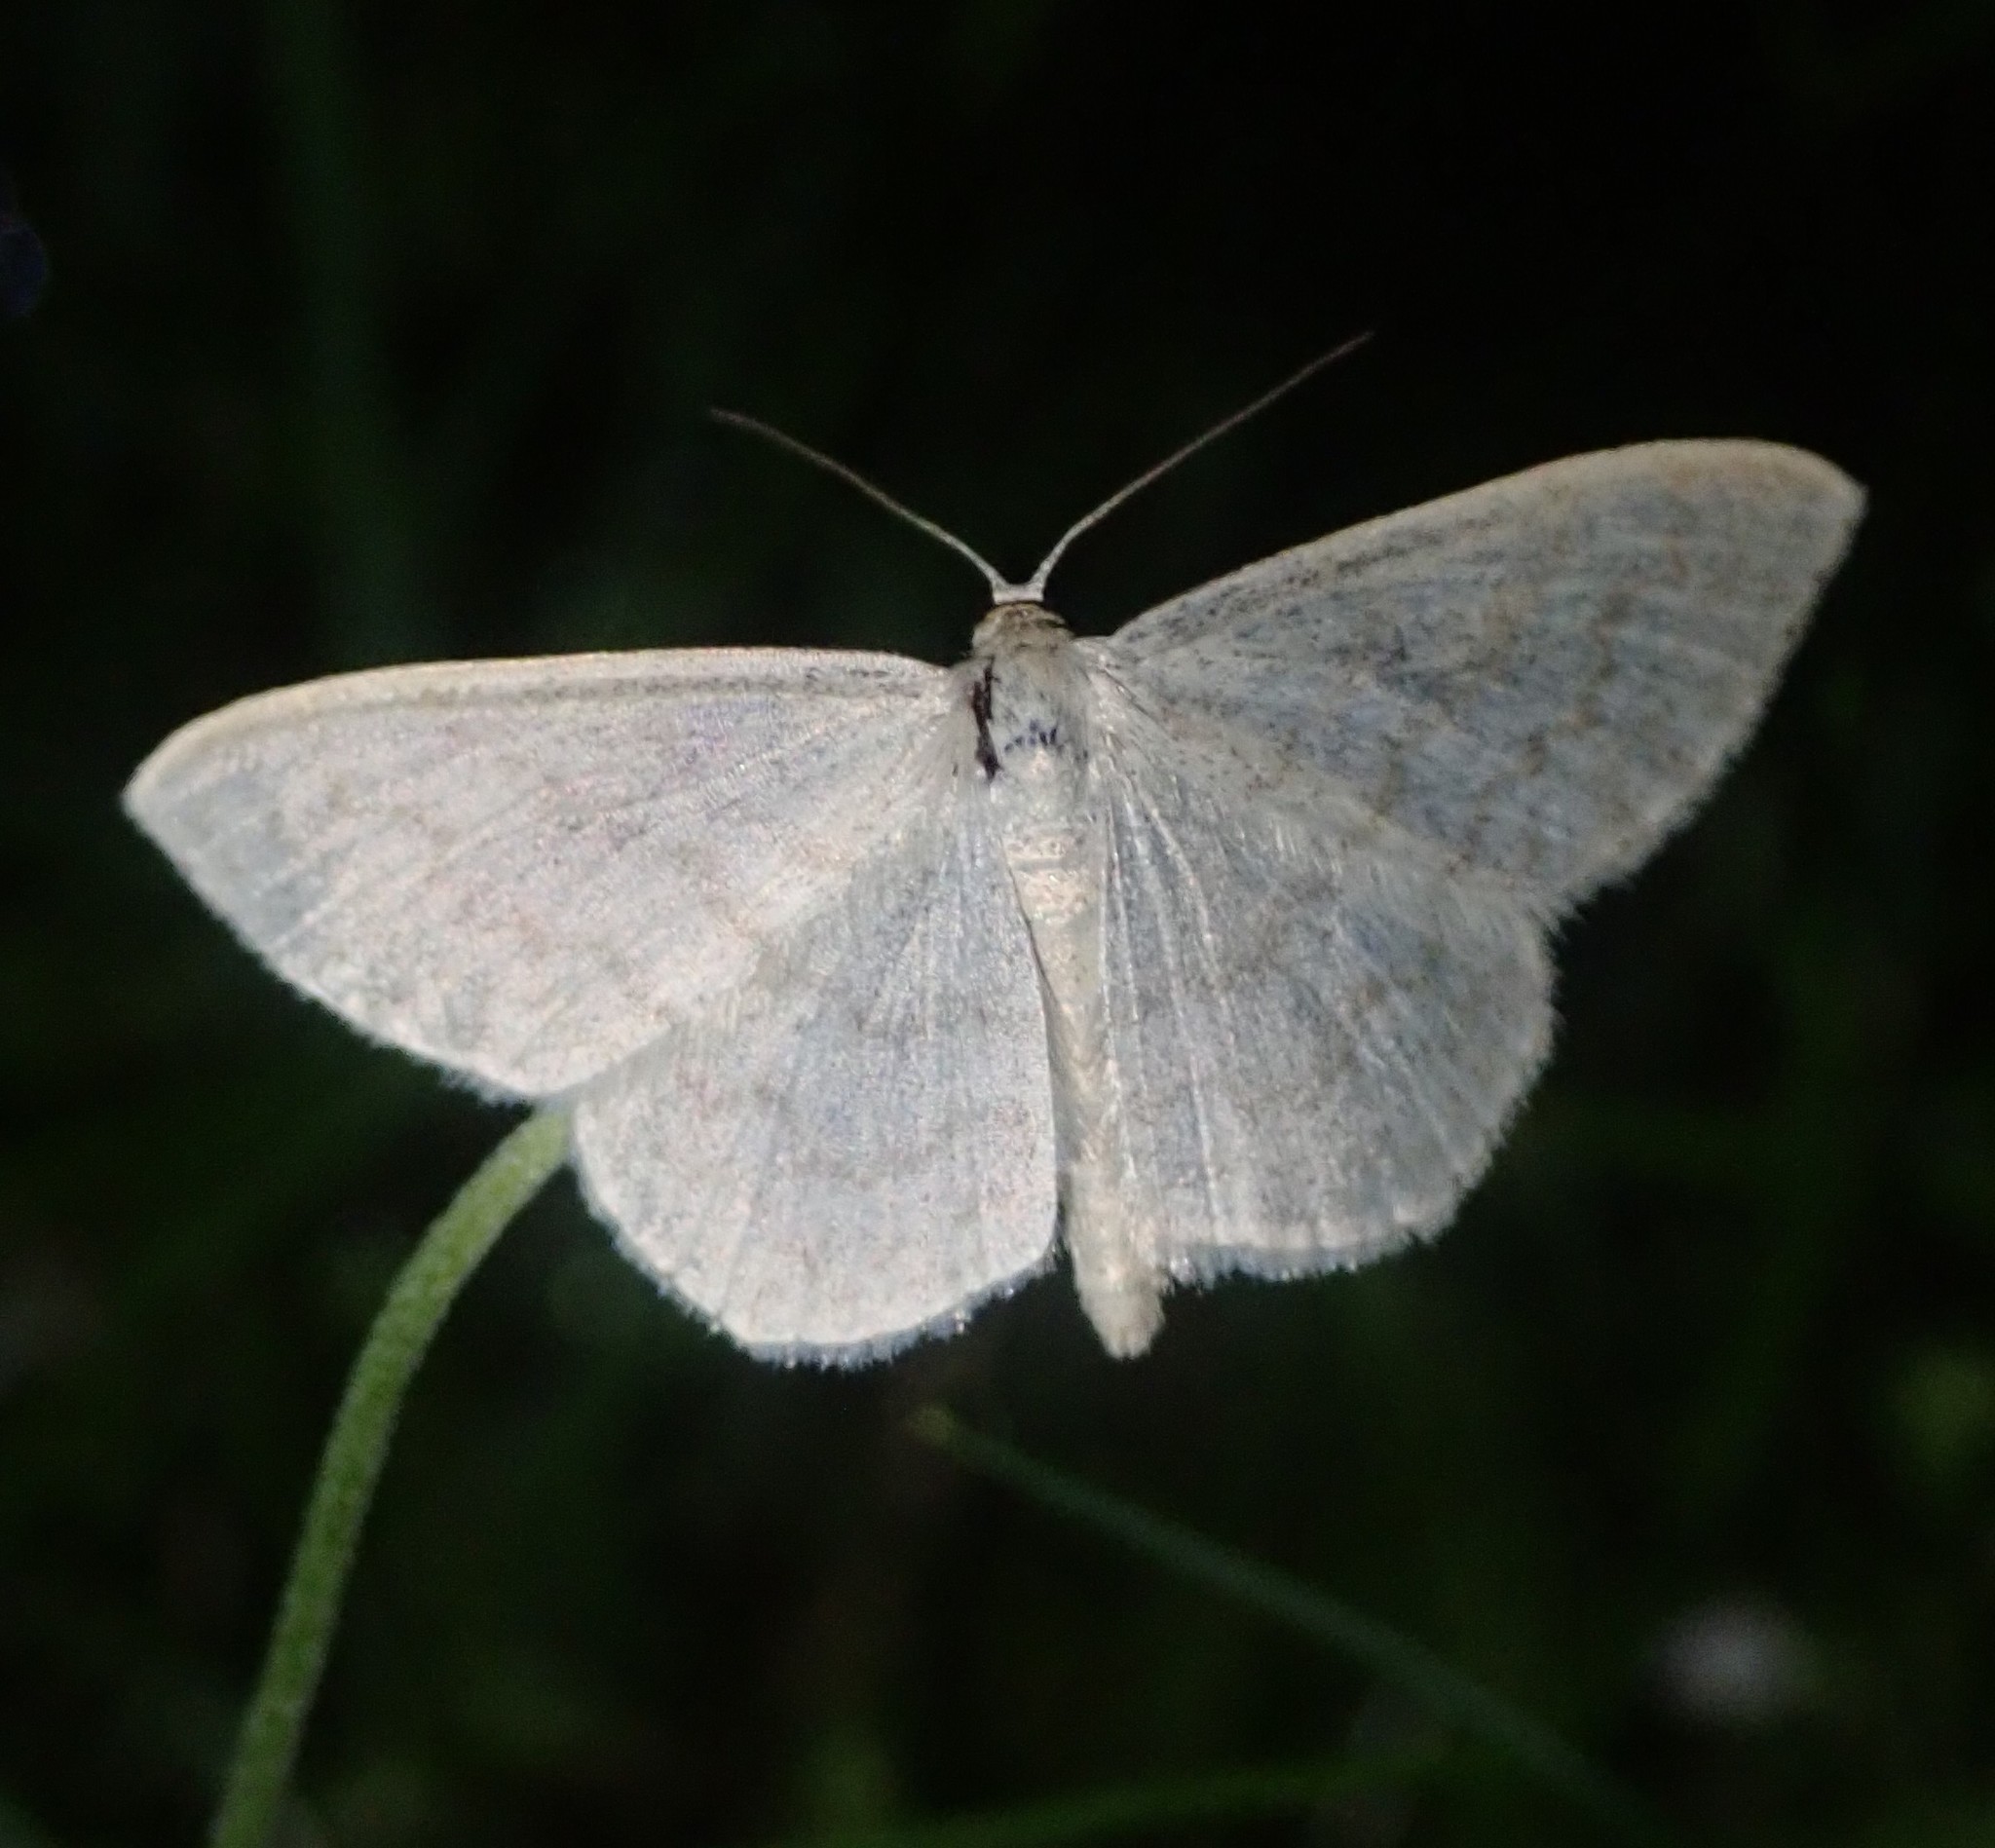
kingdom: Animalia
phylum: Arthropoda
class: Insecta
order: Lepidoptera
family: Geometridae
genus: Scopula
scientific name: Scopula floslactata
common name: Cream wave
